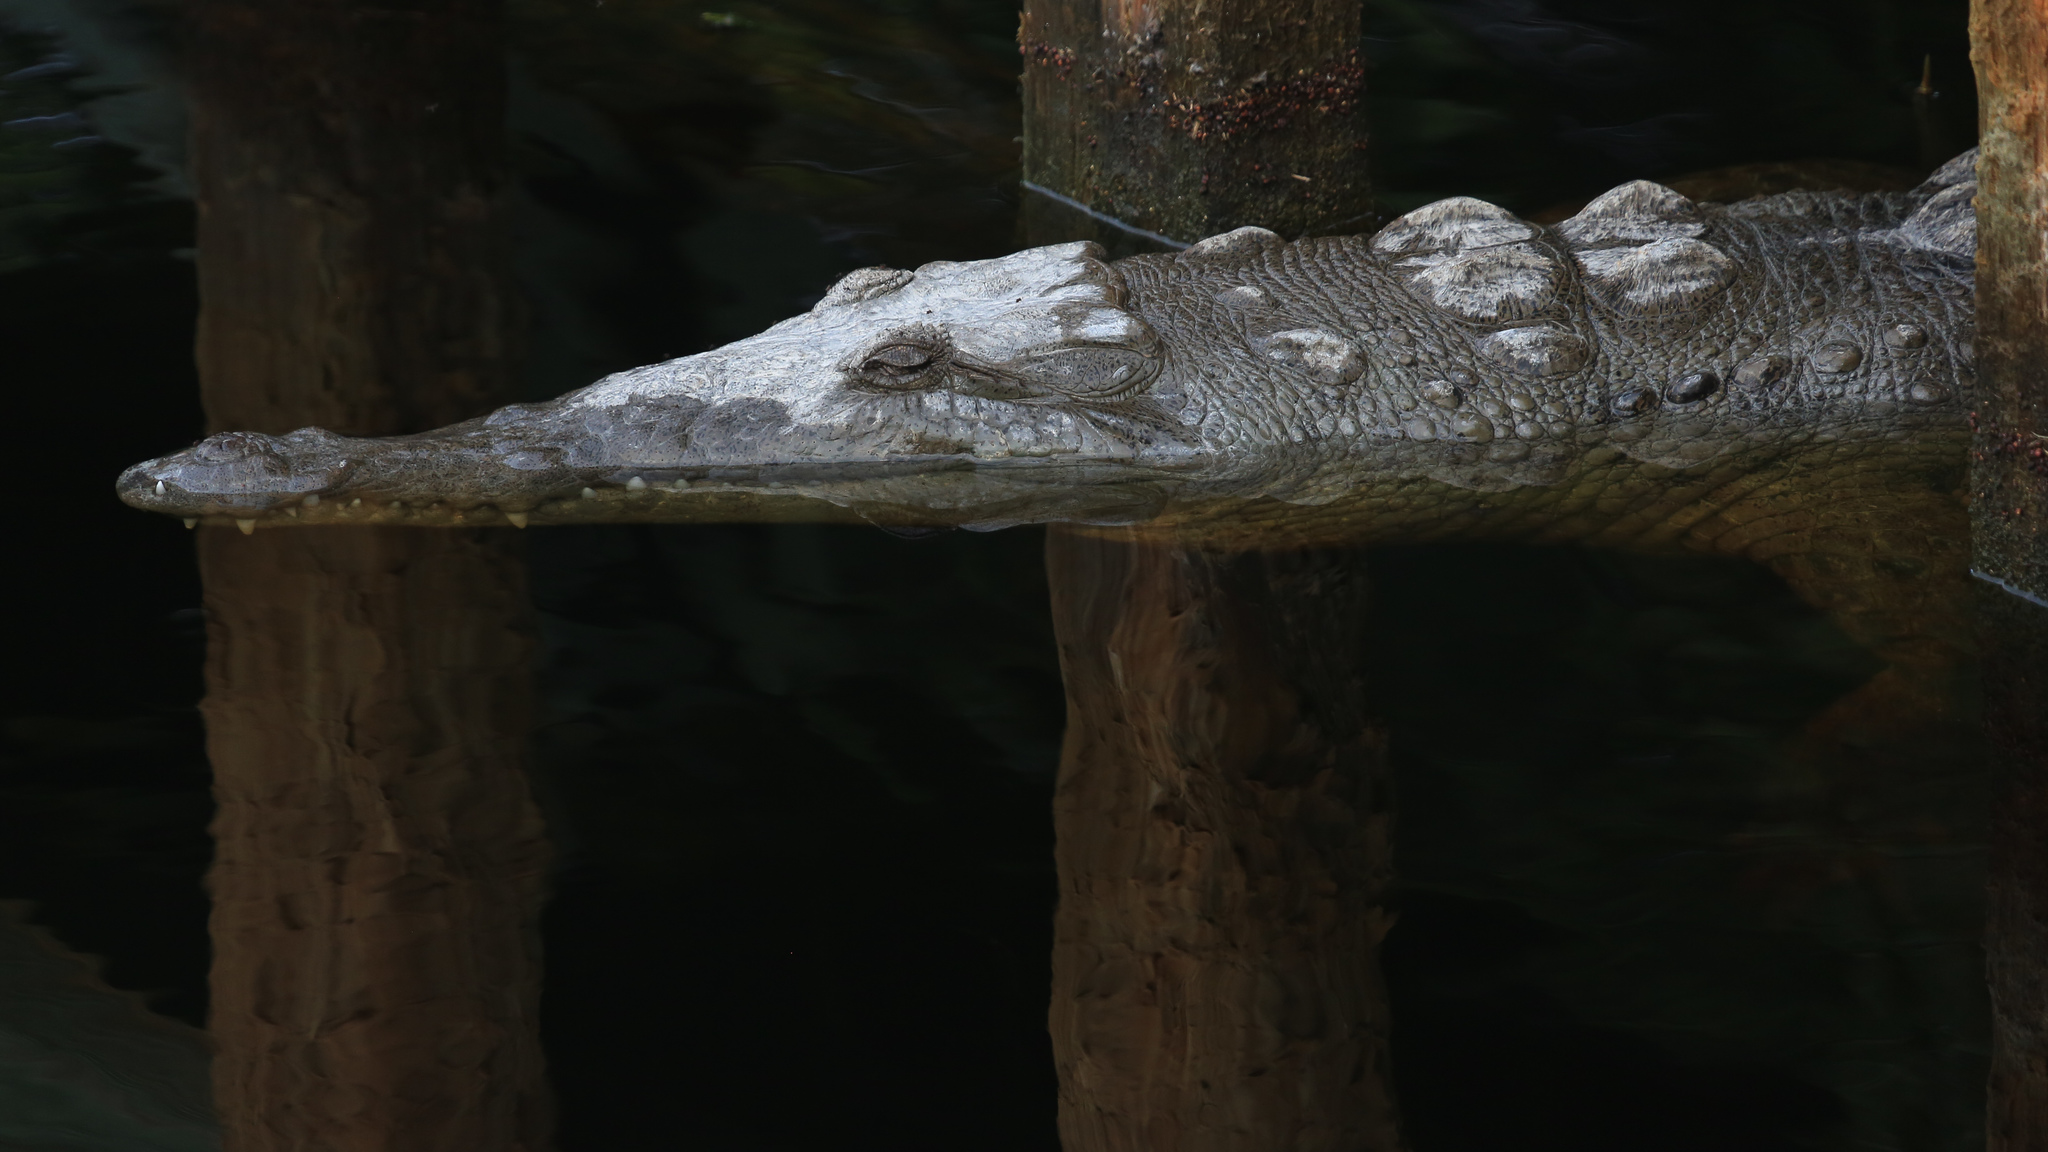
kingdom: Animalia
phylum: Chordata
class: Crocodylia
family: Crocodylidae
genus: Crocodylus
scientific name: Crocodylus acutus
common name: American crocodile
